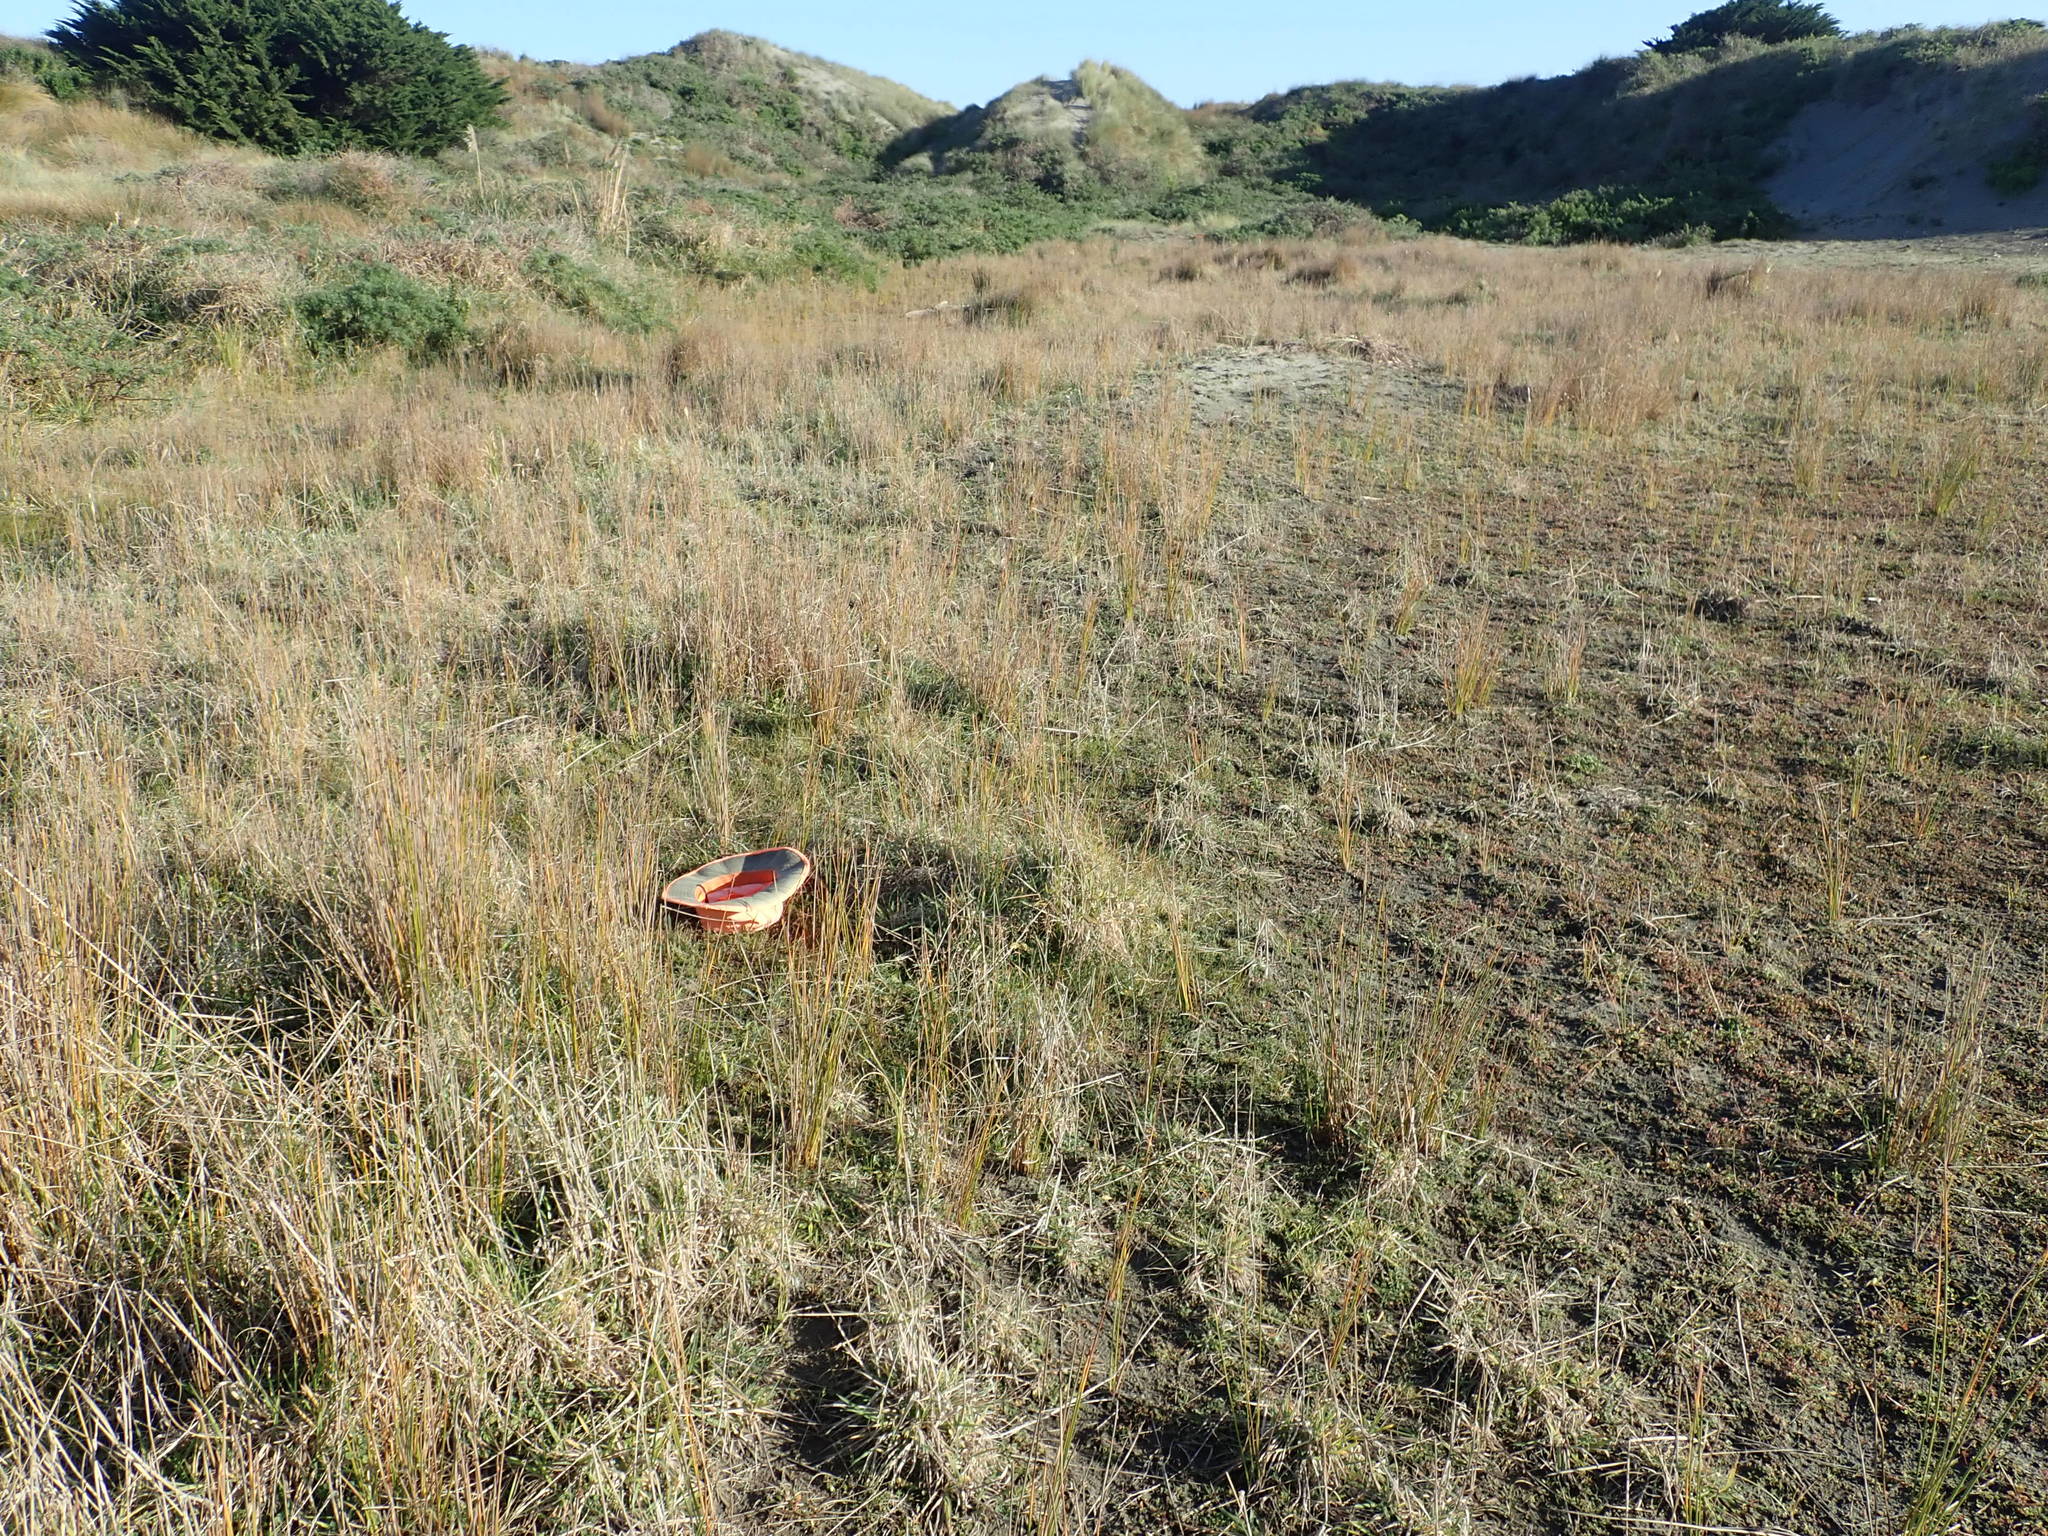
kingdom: Animalia
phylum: Arthropoda
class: Malacostraca
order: Isopoda
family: Porcellionidae
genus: Porcellio
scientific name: Porcellio scaber
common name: Common rough woodlouse
